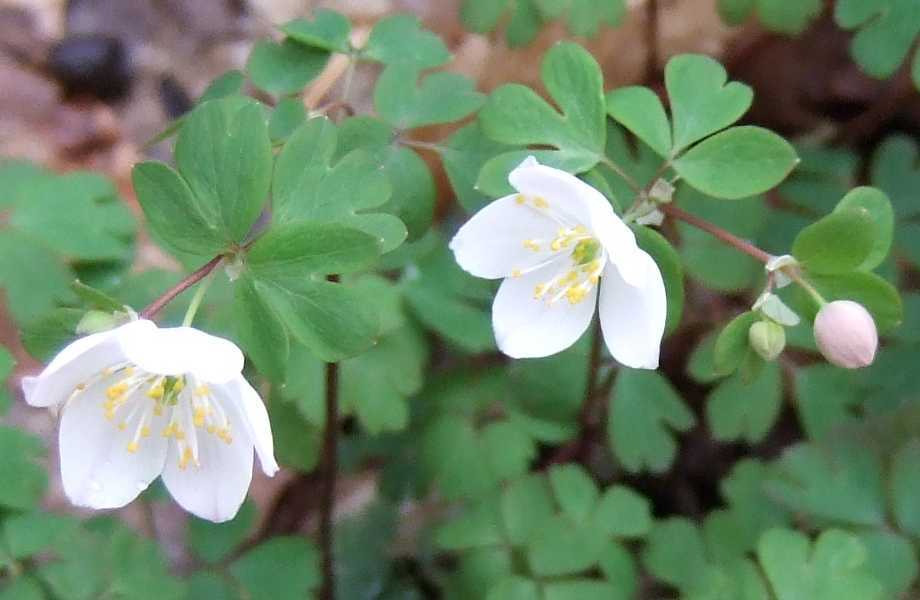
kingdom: Plantae
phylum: Tracheophyta
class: Magnoliopsida
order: Ranunculales
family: Ranunculaceae
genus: Enemion
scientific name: Enemion biternatum
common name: Eastern false rue-anemone
